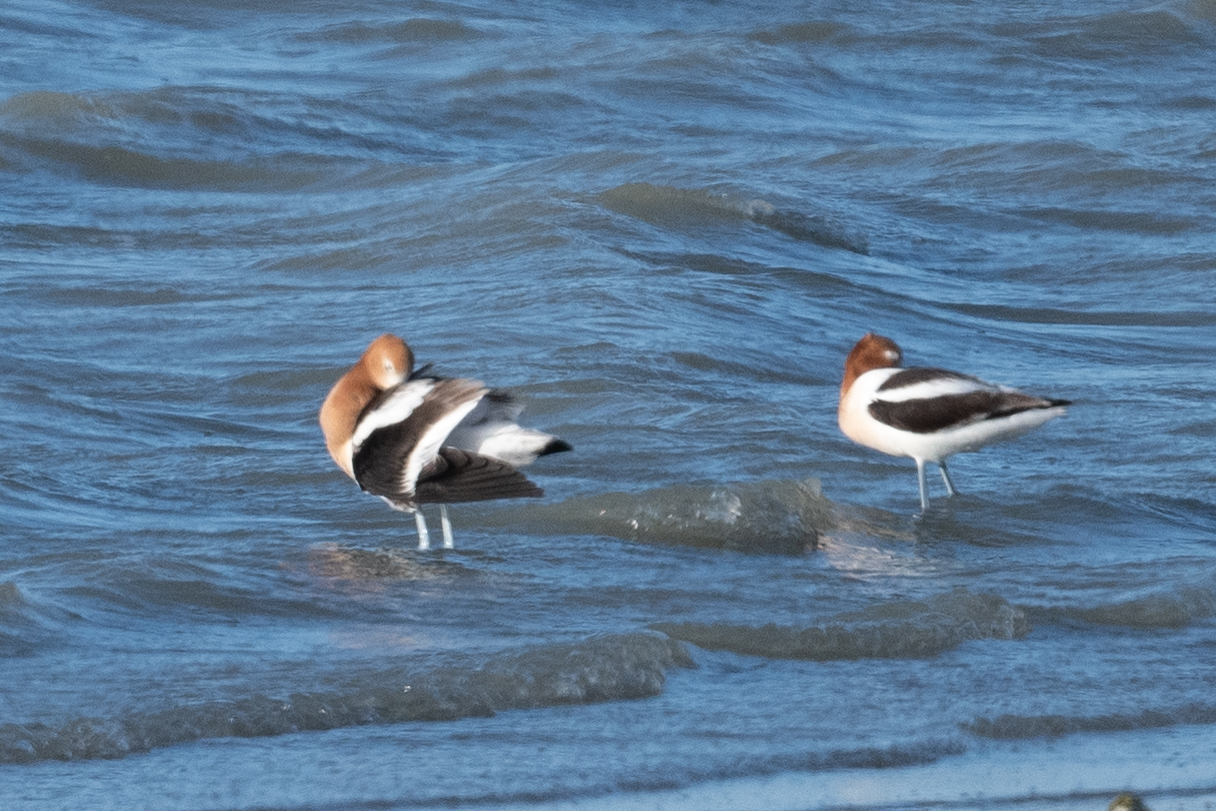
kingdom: Animalia
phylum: Chordata
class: Aves
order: Charadriiformes
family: Recurvirostridae
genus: Recurvirostra
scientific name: Recurvirostra americana
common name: American avocet
